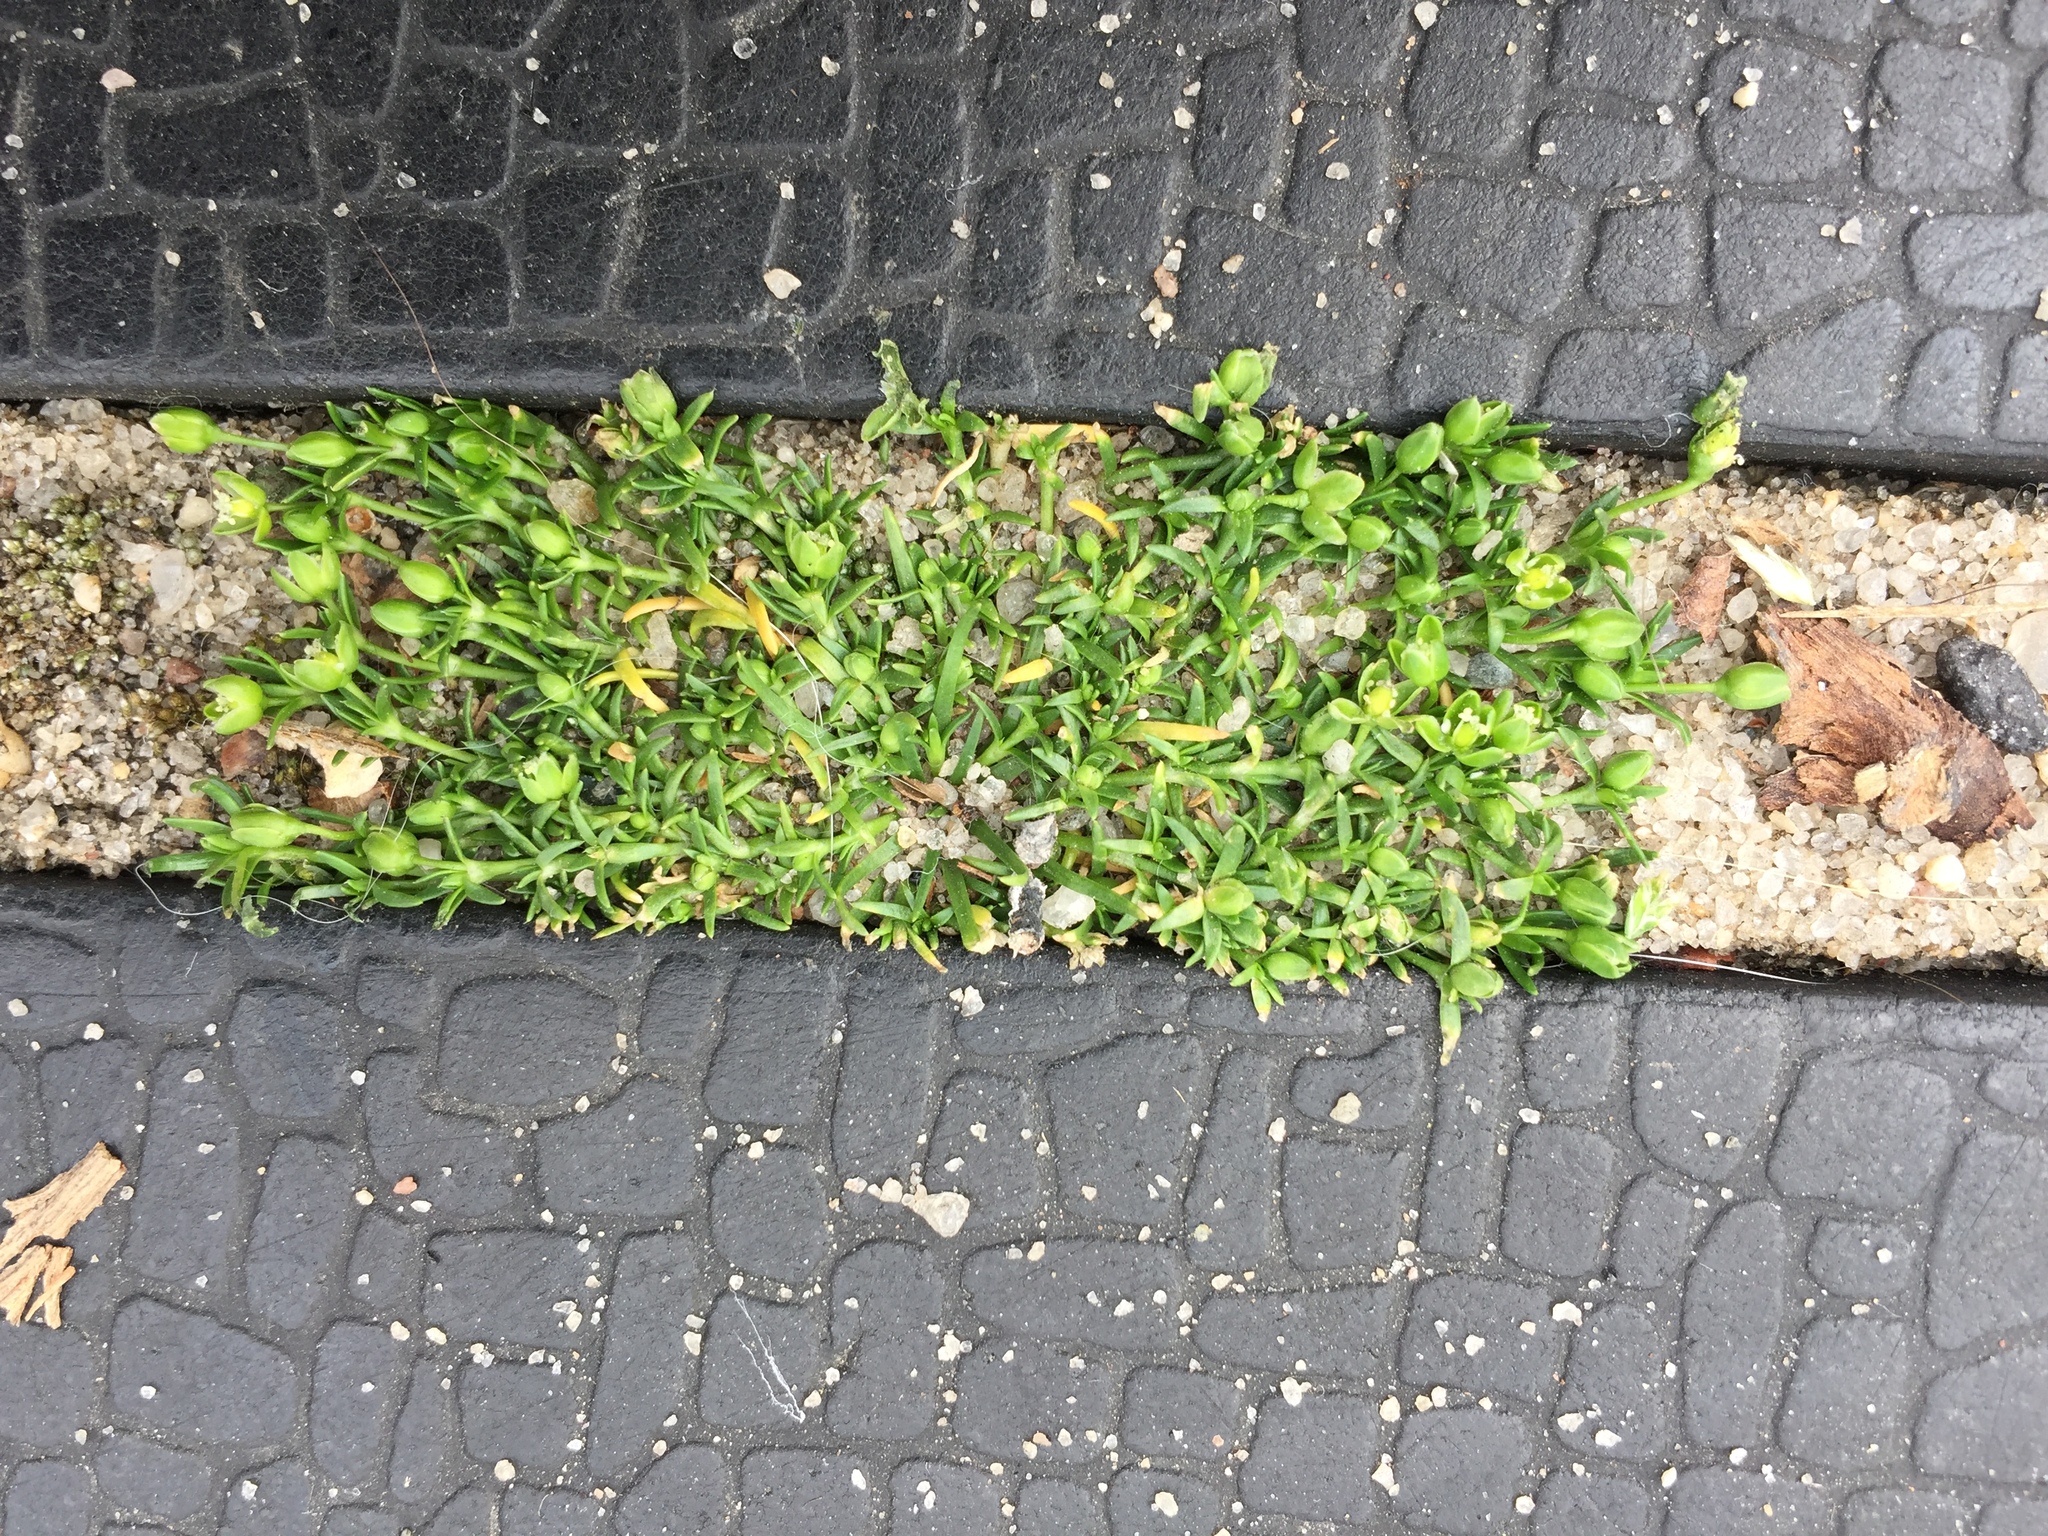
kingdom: Plantae
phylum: Tracheophyta
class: Magnoliopsida
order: Caryophyllales
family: Caryophyllaceae
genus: Sagina
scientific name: Sagina procumbens
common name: Procumbent pearlwort
